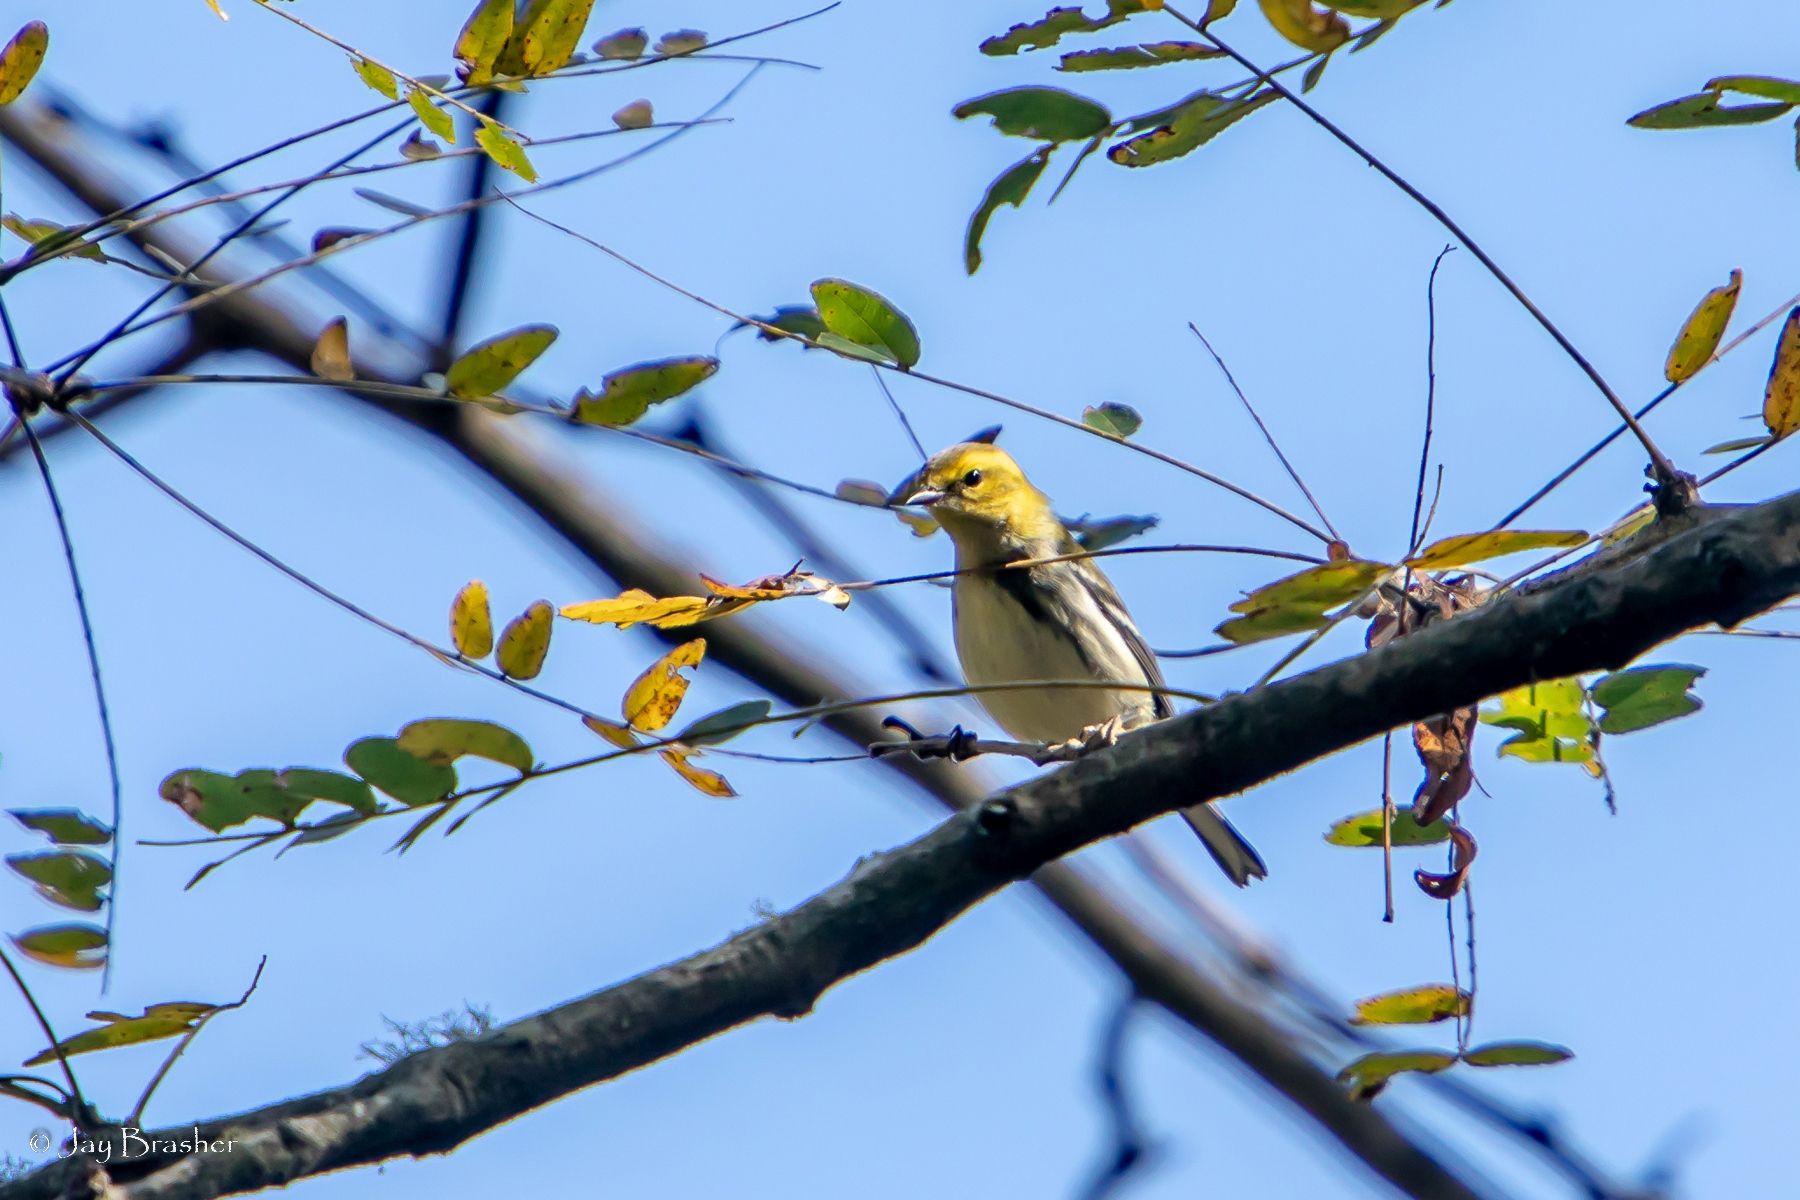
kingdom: Animalia
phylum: Chordata
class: Aves
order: Passeriformes
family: Parulidae
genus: Setophaga
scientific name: Setophaga virens
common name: Black-throated green warbler
